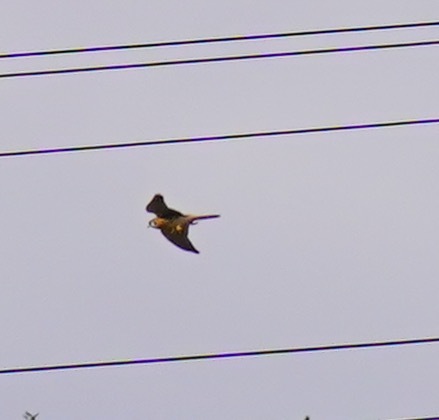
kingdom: Animalia
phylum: Chordata
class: Aves
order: Falconiformes
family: Falconidae
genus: Falco
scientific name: Falco sparverius
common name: American kestrel
